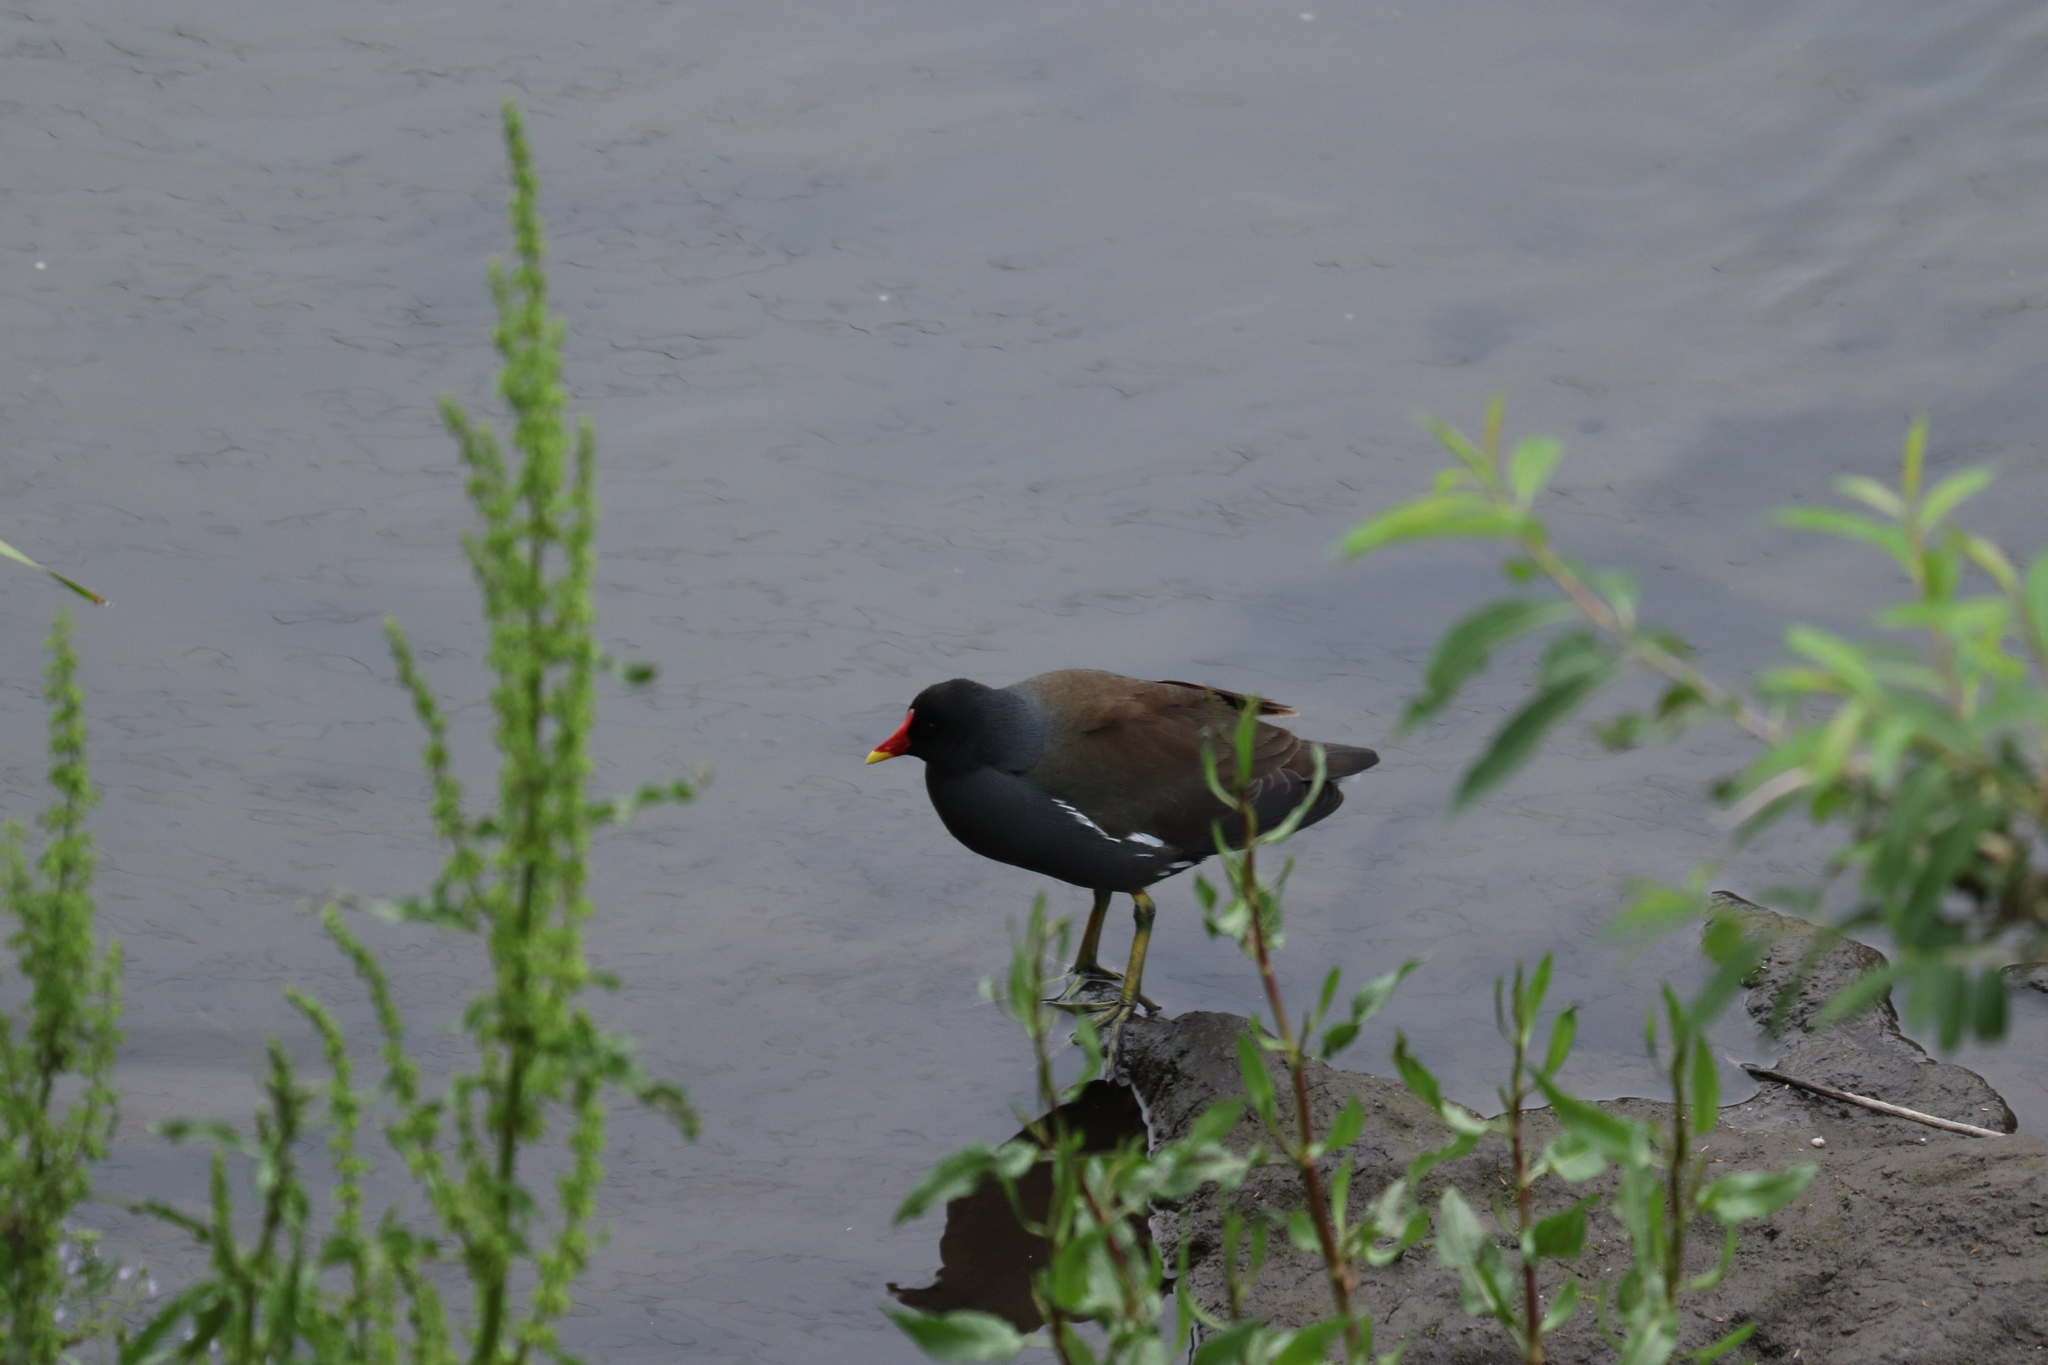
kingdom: Animalia
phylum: Chordata
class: Aves
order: Gruiformes
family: Rallidae
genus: Gallinula
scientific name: Gallinula chloropus
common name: Common moorhen
